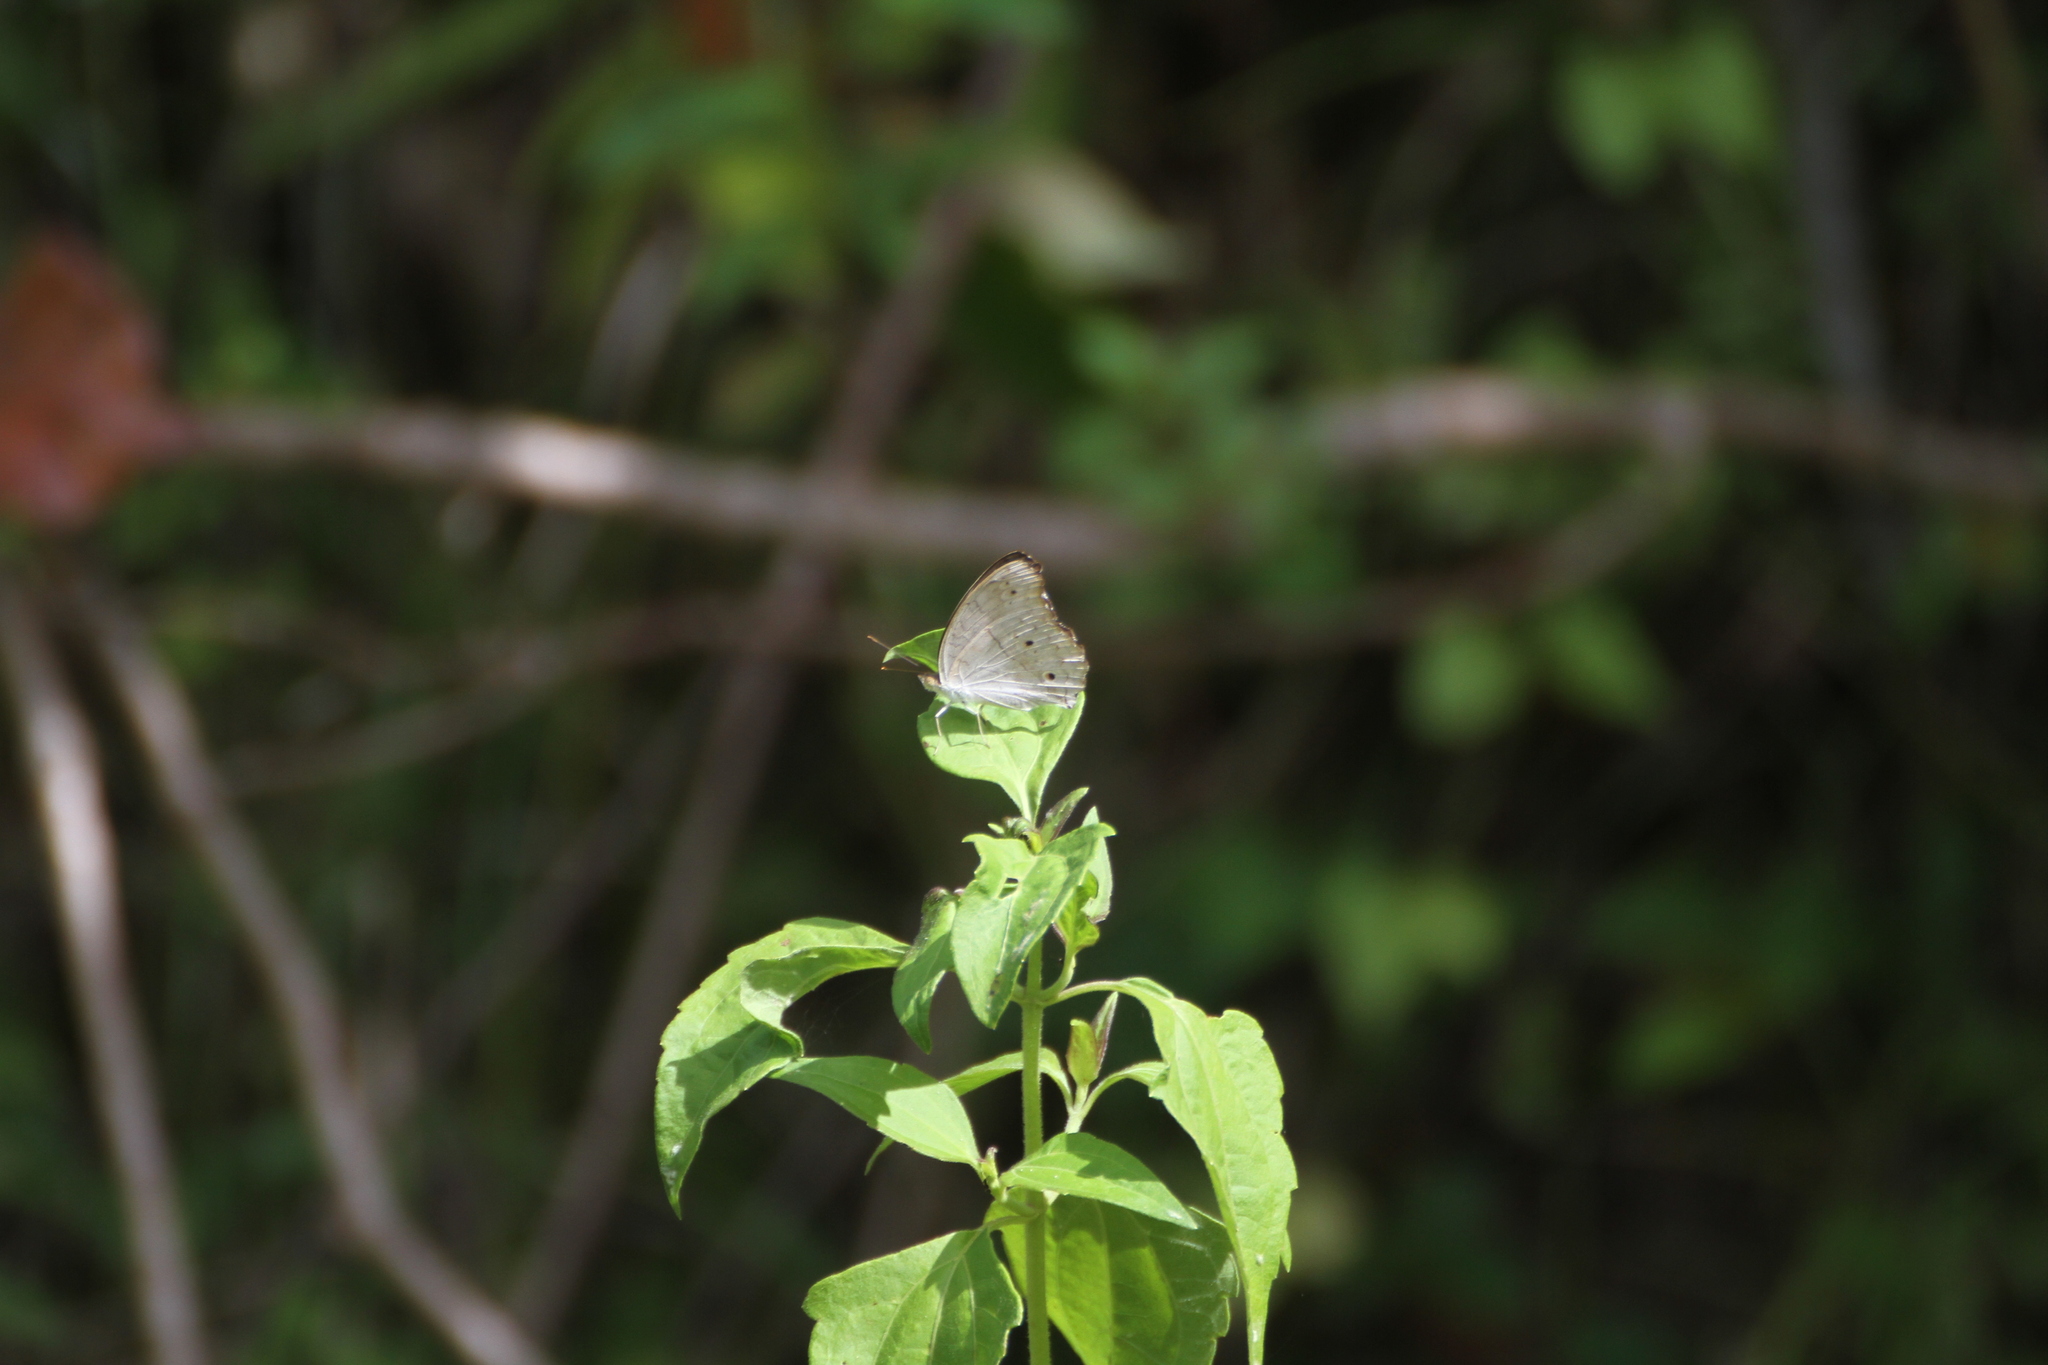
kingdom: Animalia
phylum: Arthropoda
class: Insecta
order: Lepidoptera
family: Nymphalidae
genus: Junonia
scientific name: Junonia atlites
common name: Grey pansy
